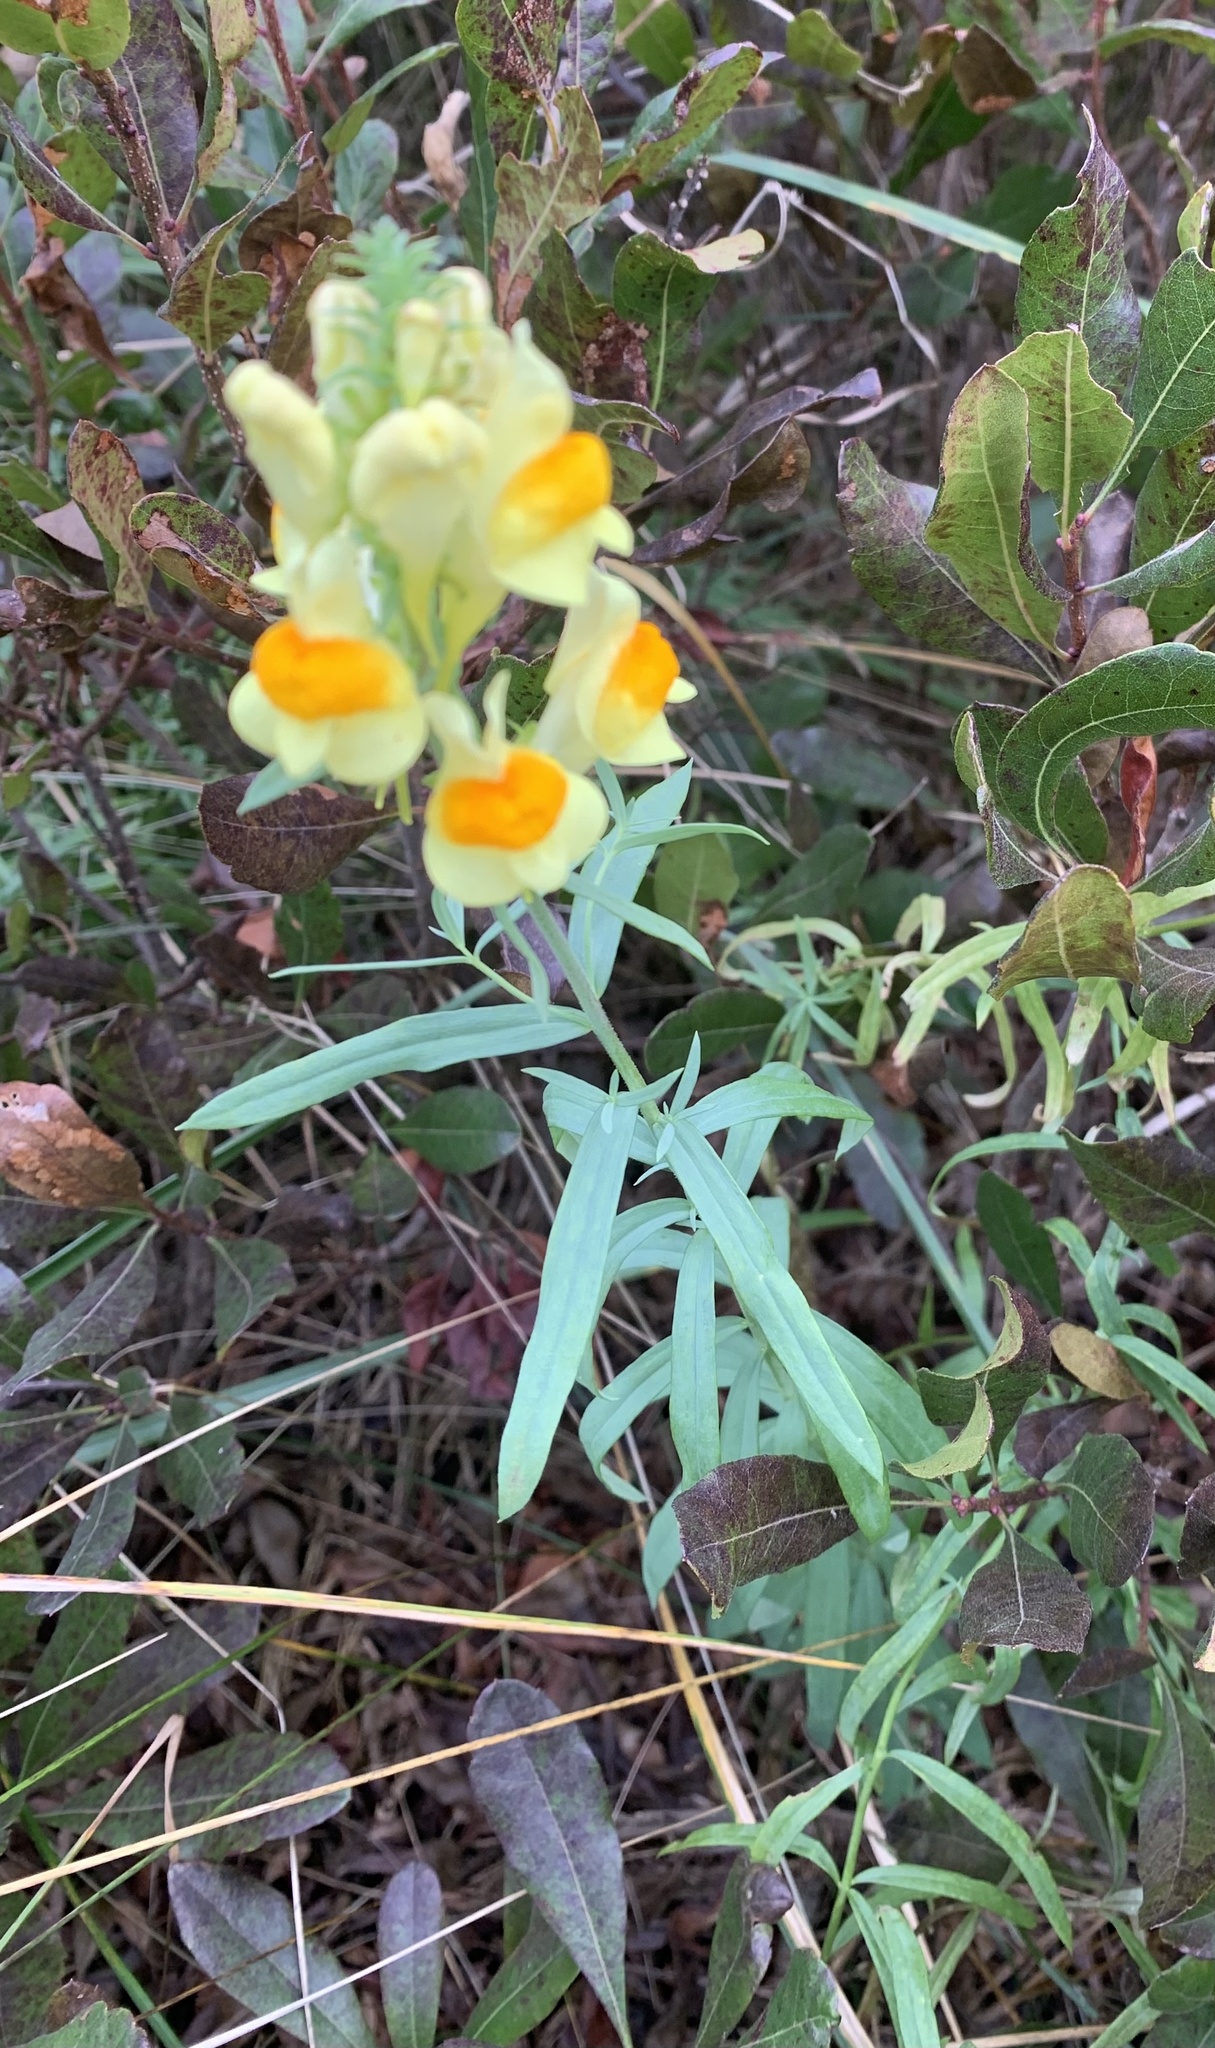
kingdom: Plantae
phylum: Tracheophyta
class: Magnoliopsida
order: Lamiales
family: Plantaginaceae
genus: Linaria
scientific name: Linaria vulgaris
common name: Butter and eggs
